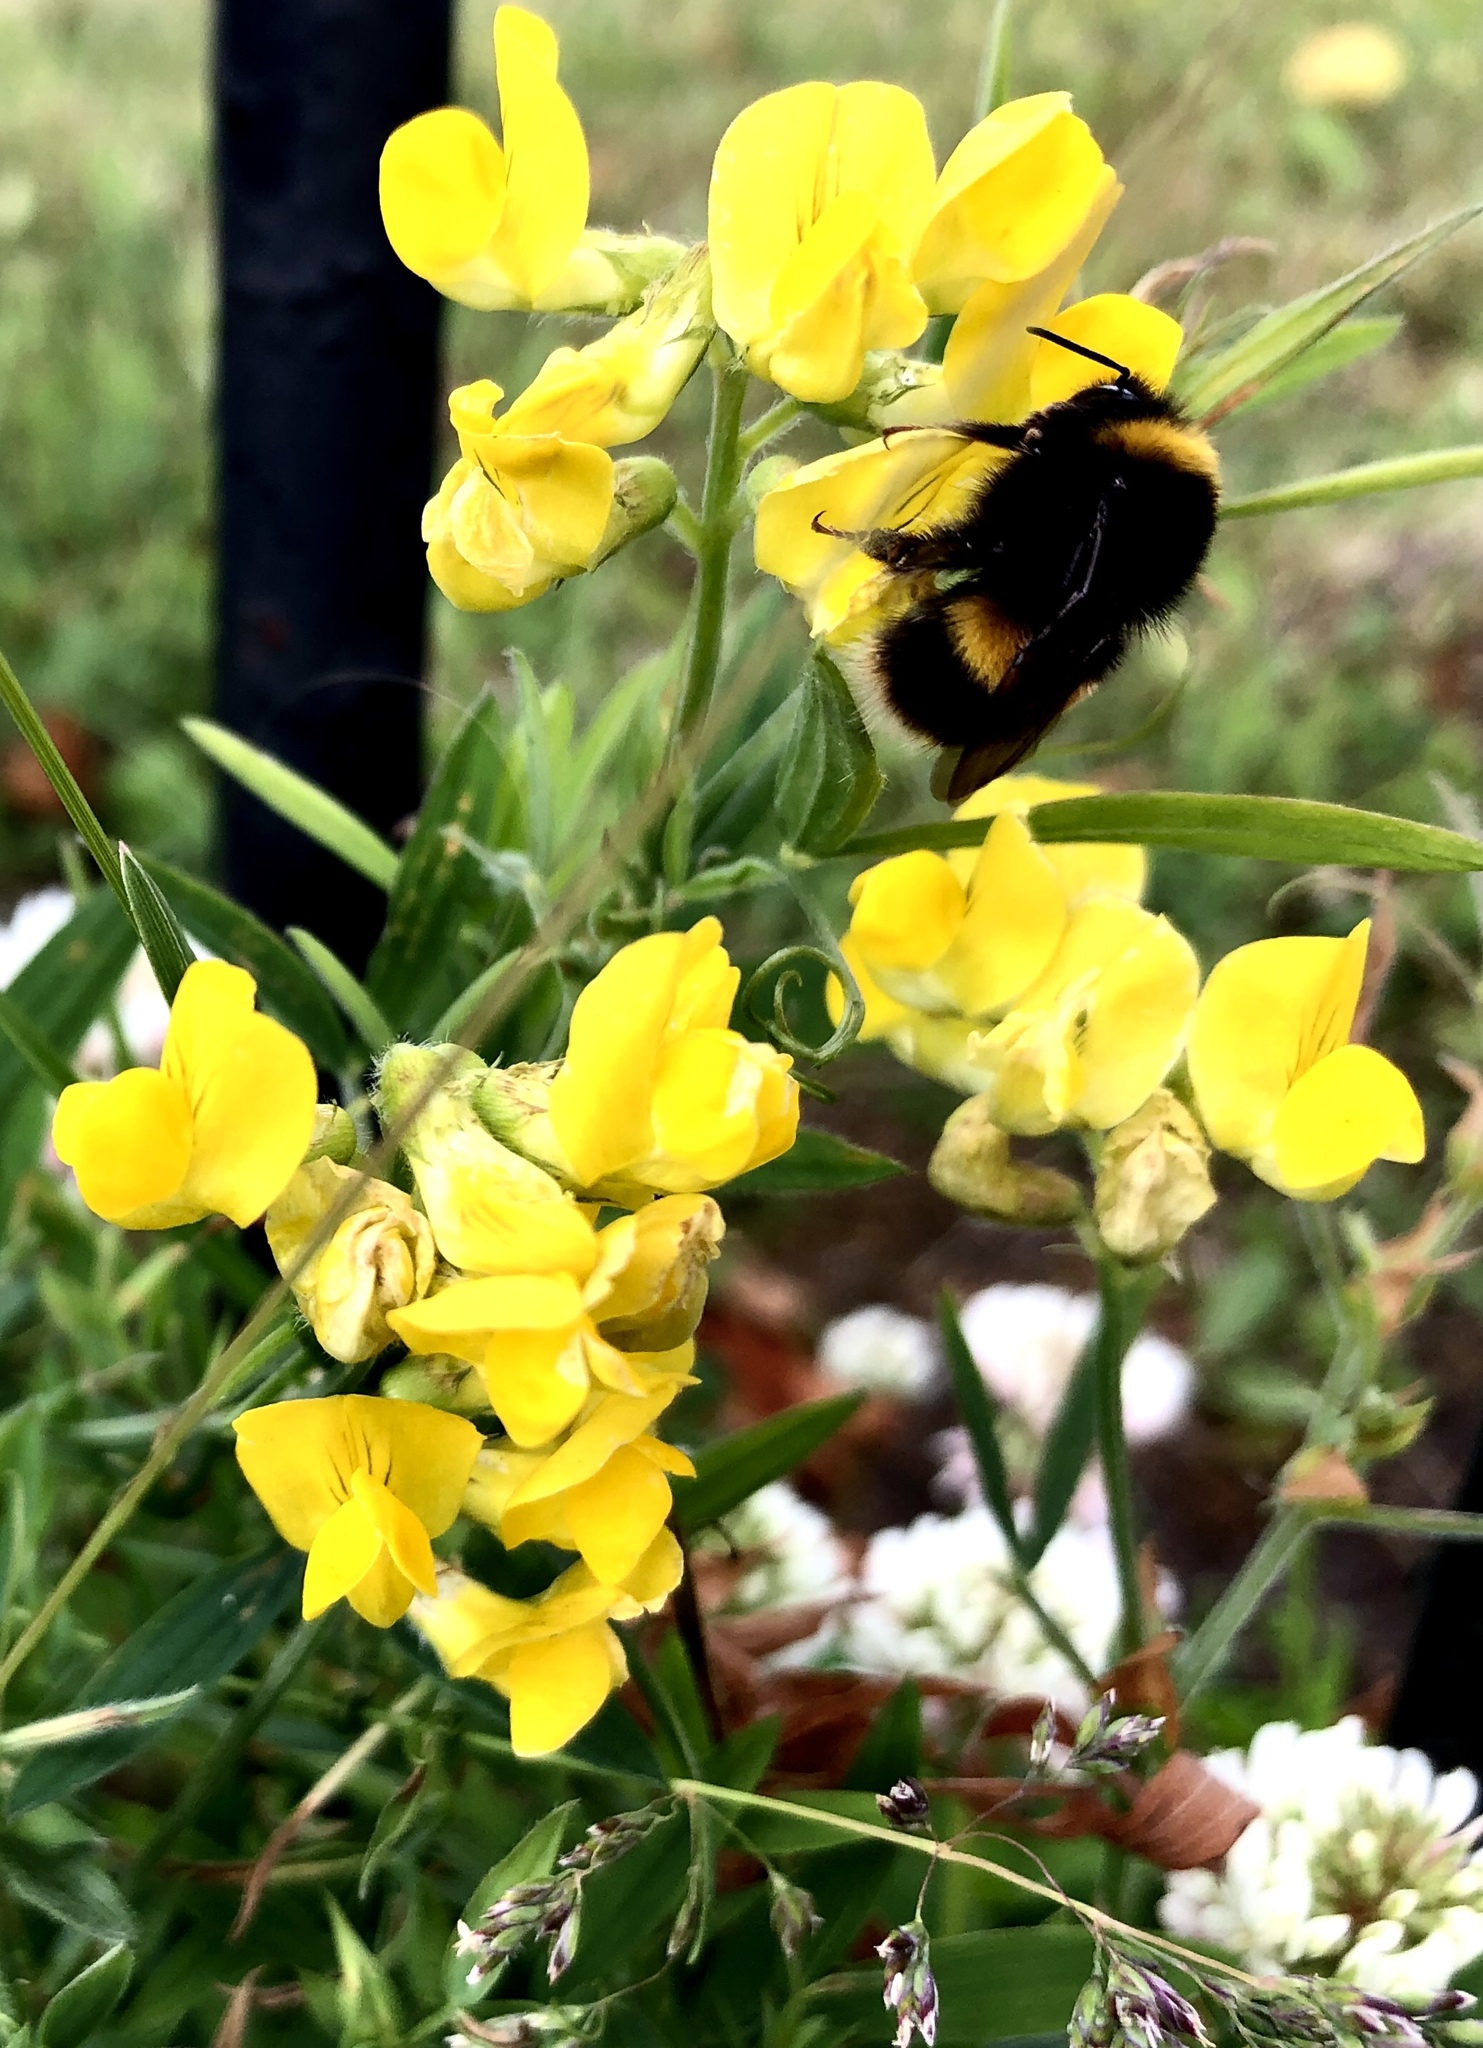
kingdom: Plantae
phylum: Tracheophyta
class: Magnoliopsida
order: Fabales
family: Fabaceae
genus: Lathyrus
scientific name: Lathyrus pratensis
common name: Meadow vetchling
